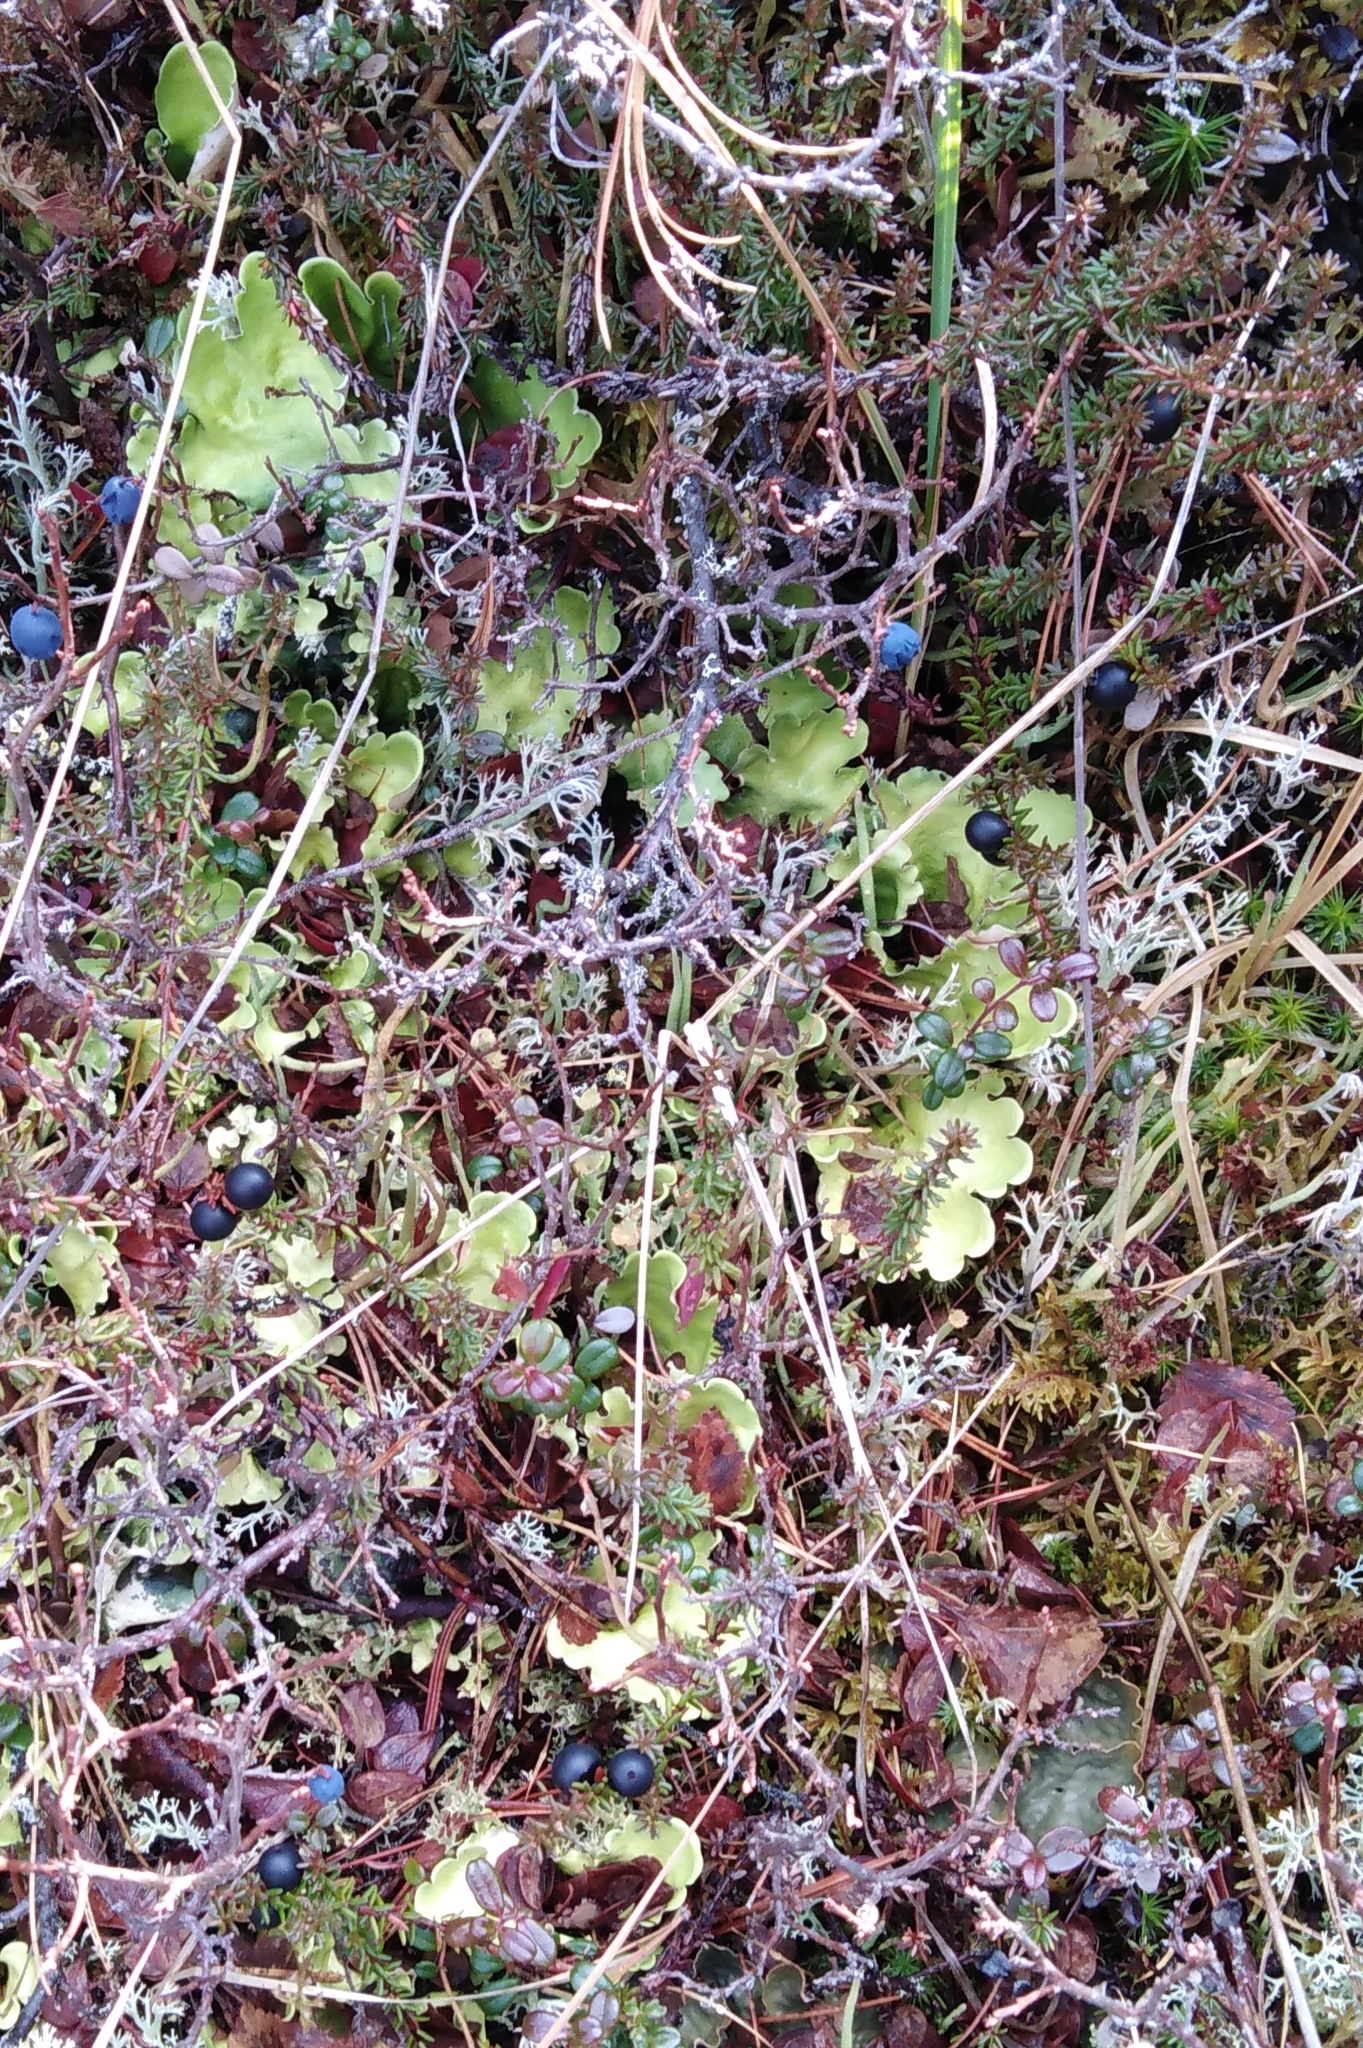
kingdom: Fungi
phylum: Ascomycota
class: Lecanoromycetes
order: Peltigerales
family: Nephromataceae
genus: Nephroma
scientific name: Nephroma arcticum
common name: Arctic kidney-lichen
